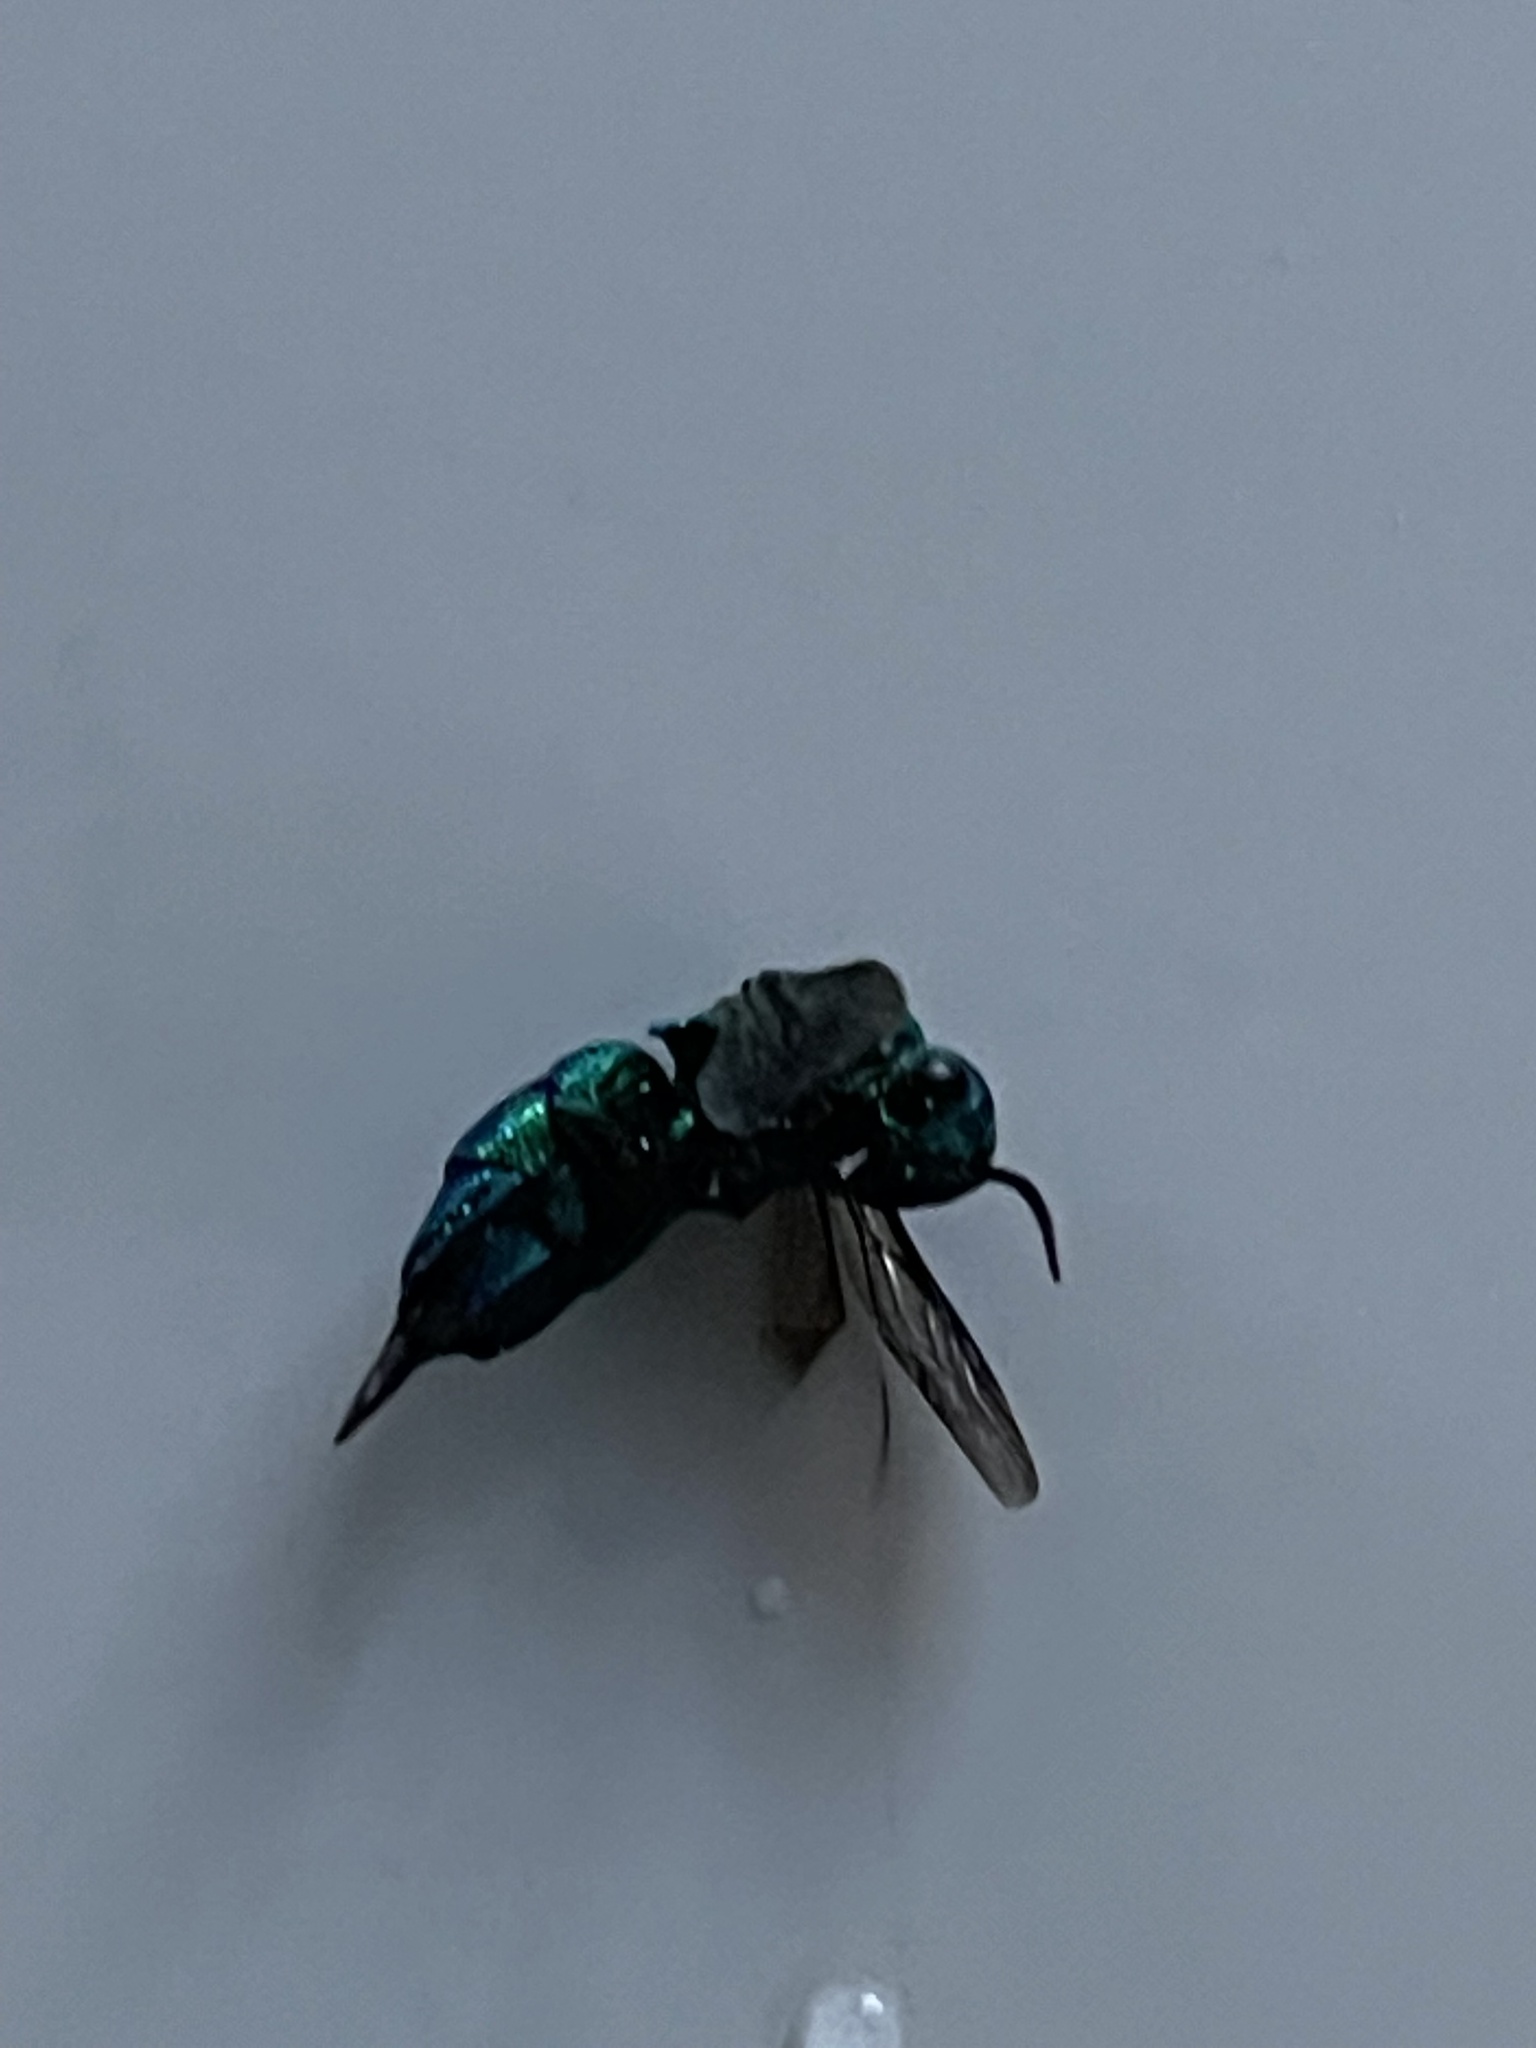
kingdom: Animalia
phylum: Arthropoda
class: Insecta
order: Hymenoptera
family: Chrysididae
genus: Chrysis
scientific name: Chrysis angolensis
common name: Cuckoo wasp
